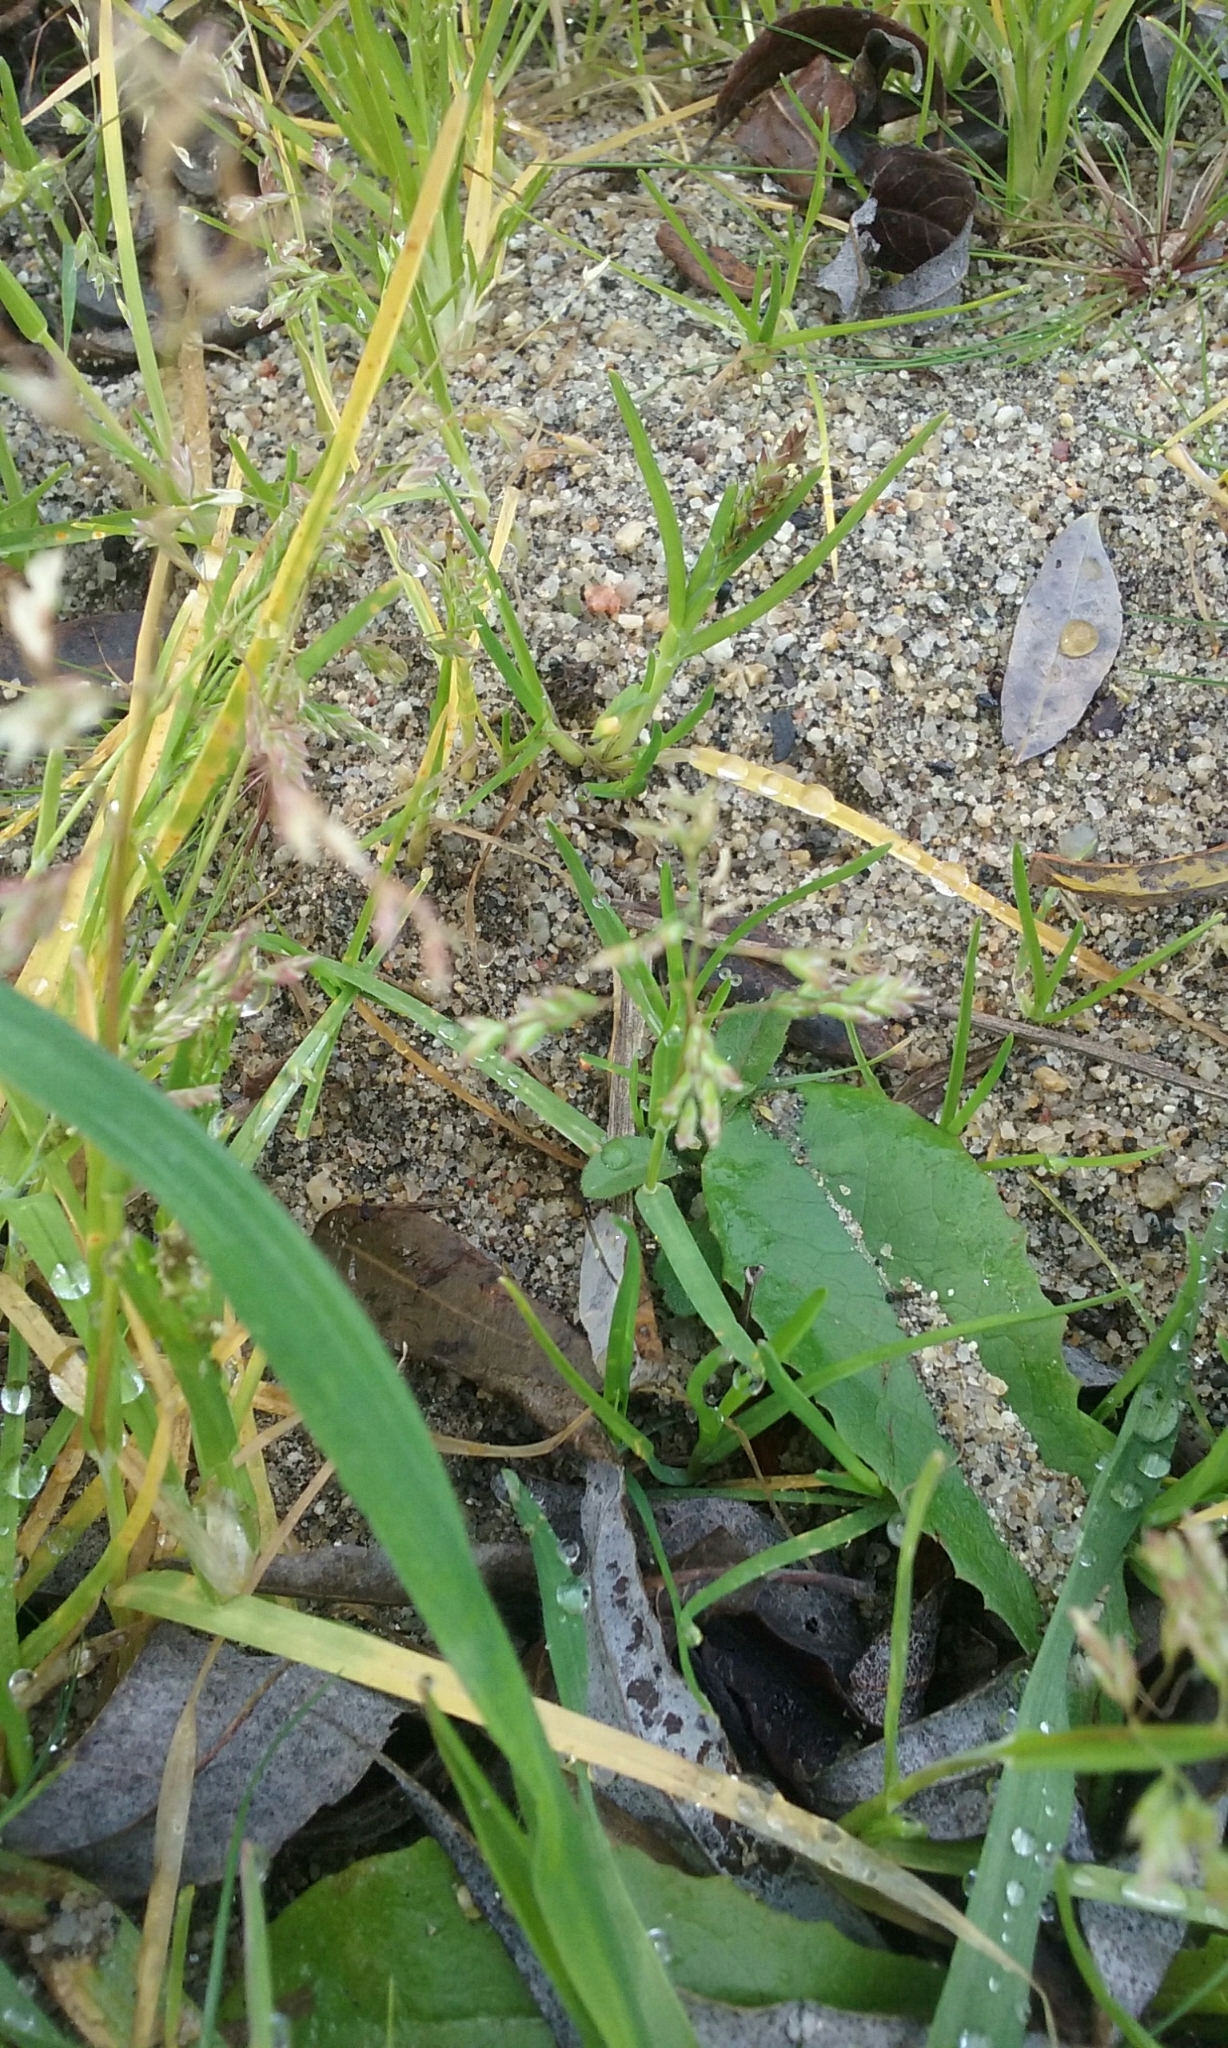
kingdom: Plantae
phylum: Tracheophyta
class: Liliopsida
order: Poales
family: Poaceae
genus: Poa
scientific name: Poa annua
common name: Annual bluegrass
